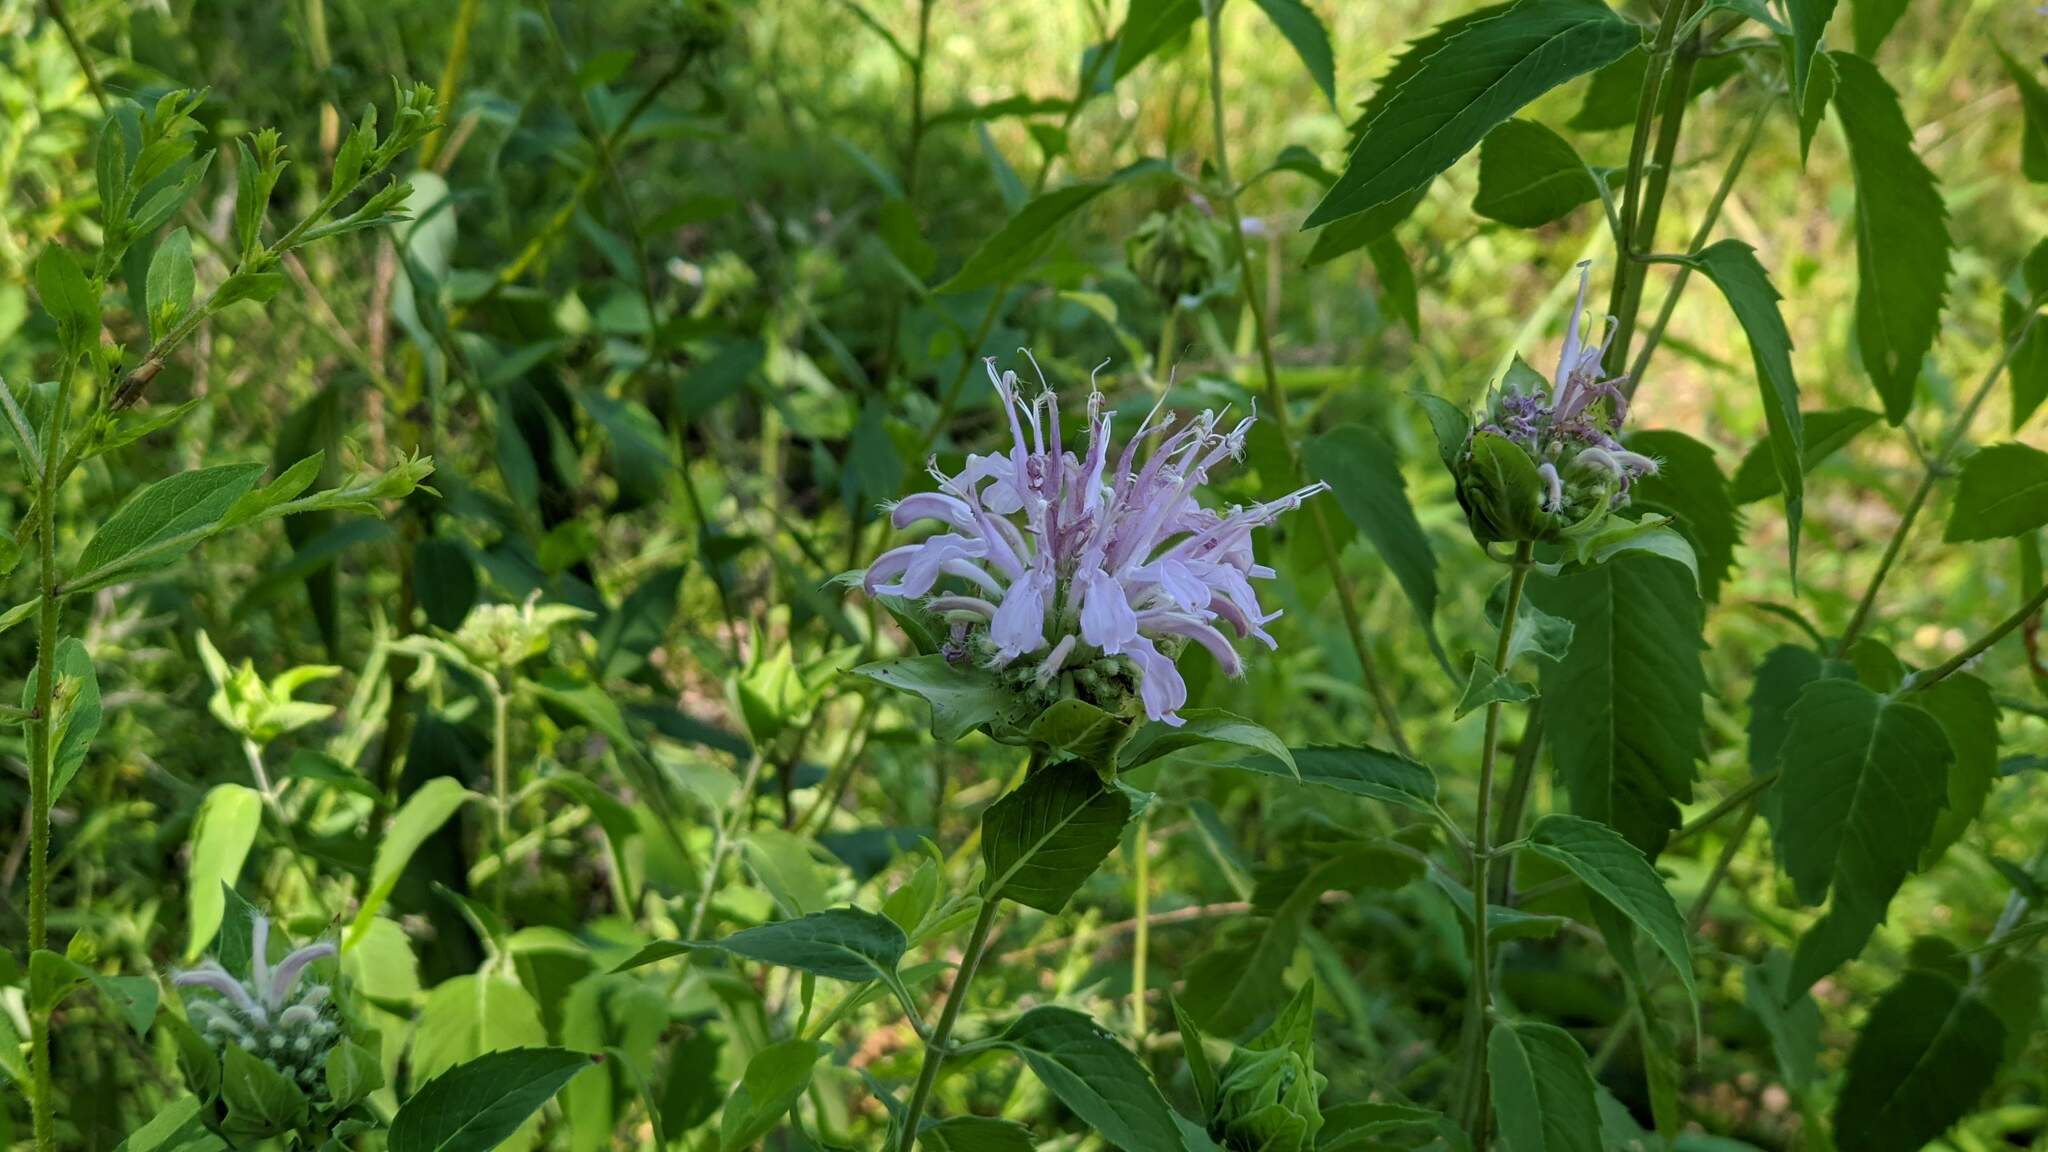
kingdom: Plantae
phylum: Tracheophyta
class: Magnoliopsida
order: Lamiales
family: Lamiaceae
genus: Monarda
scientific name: Monarda fistulosa
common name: Purple beebalm
